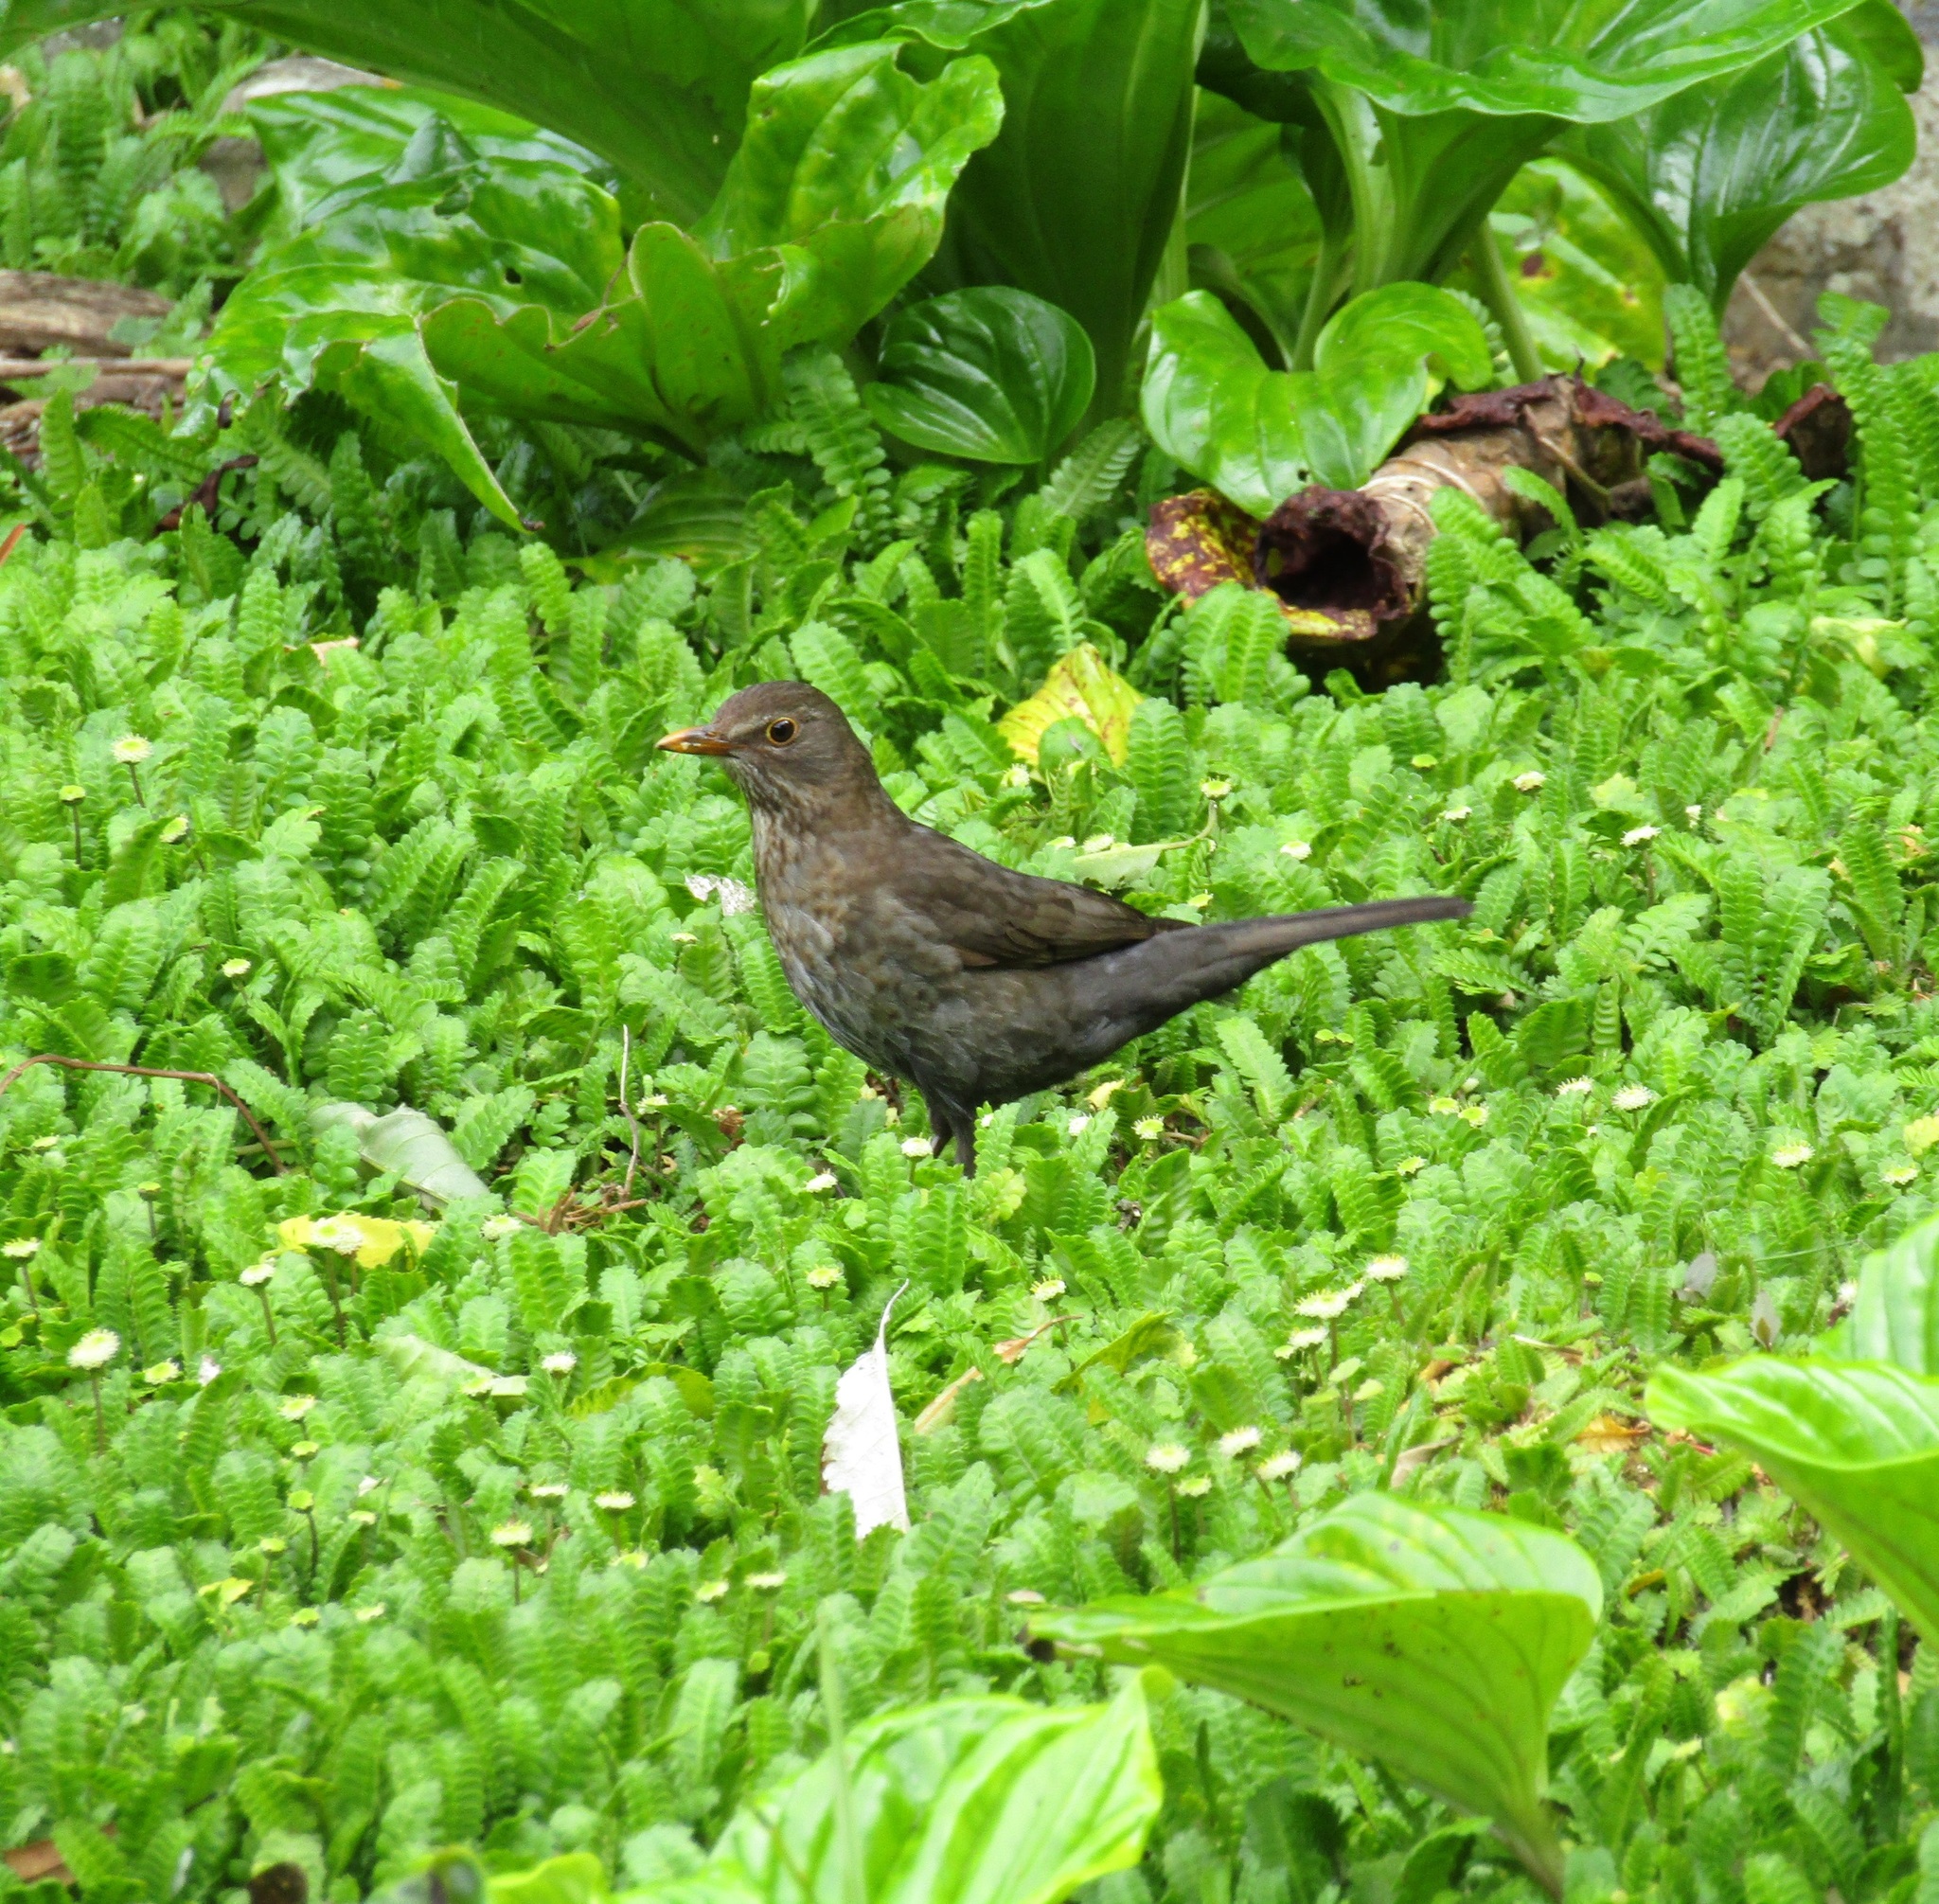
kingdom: Animalia
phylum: Chordata
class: Aves
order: Passeriformes
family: Turdidae
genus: Turdus
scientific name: Turdus merula
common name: Common blackbird
